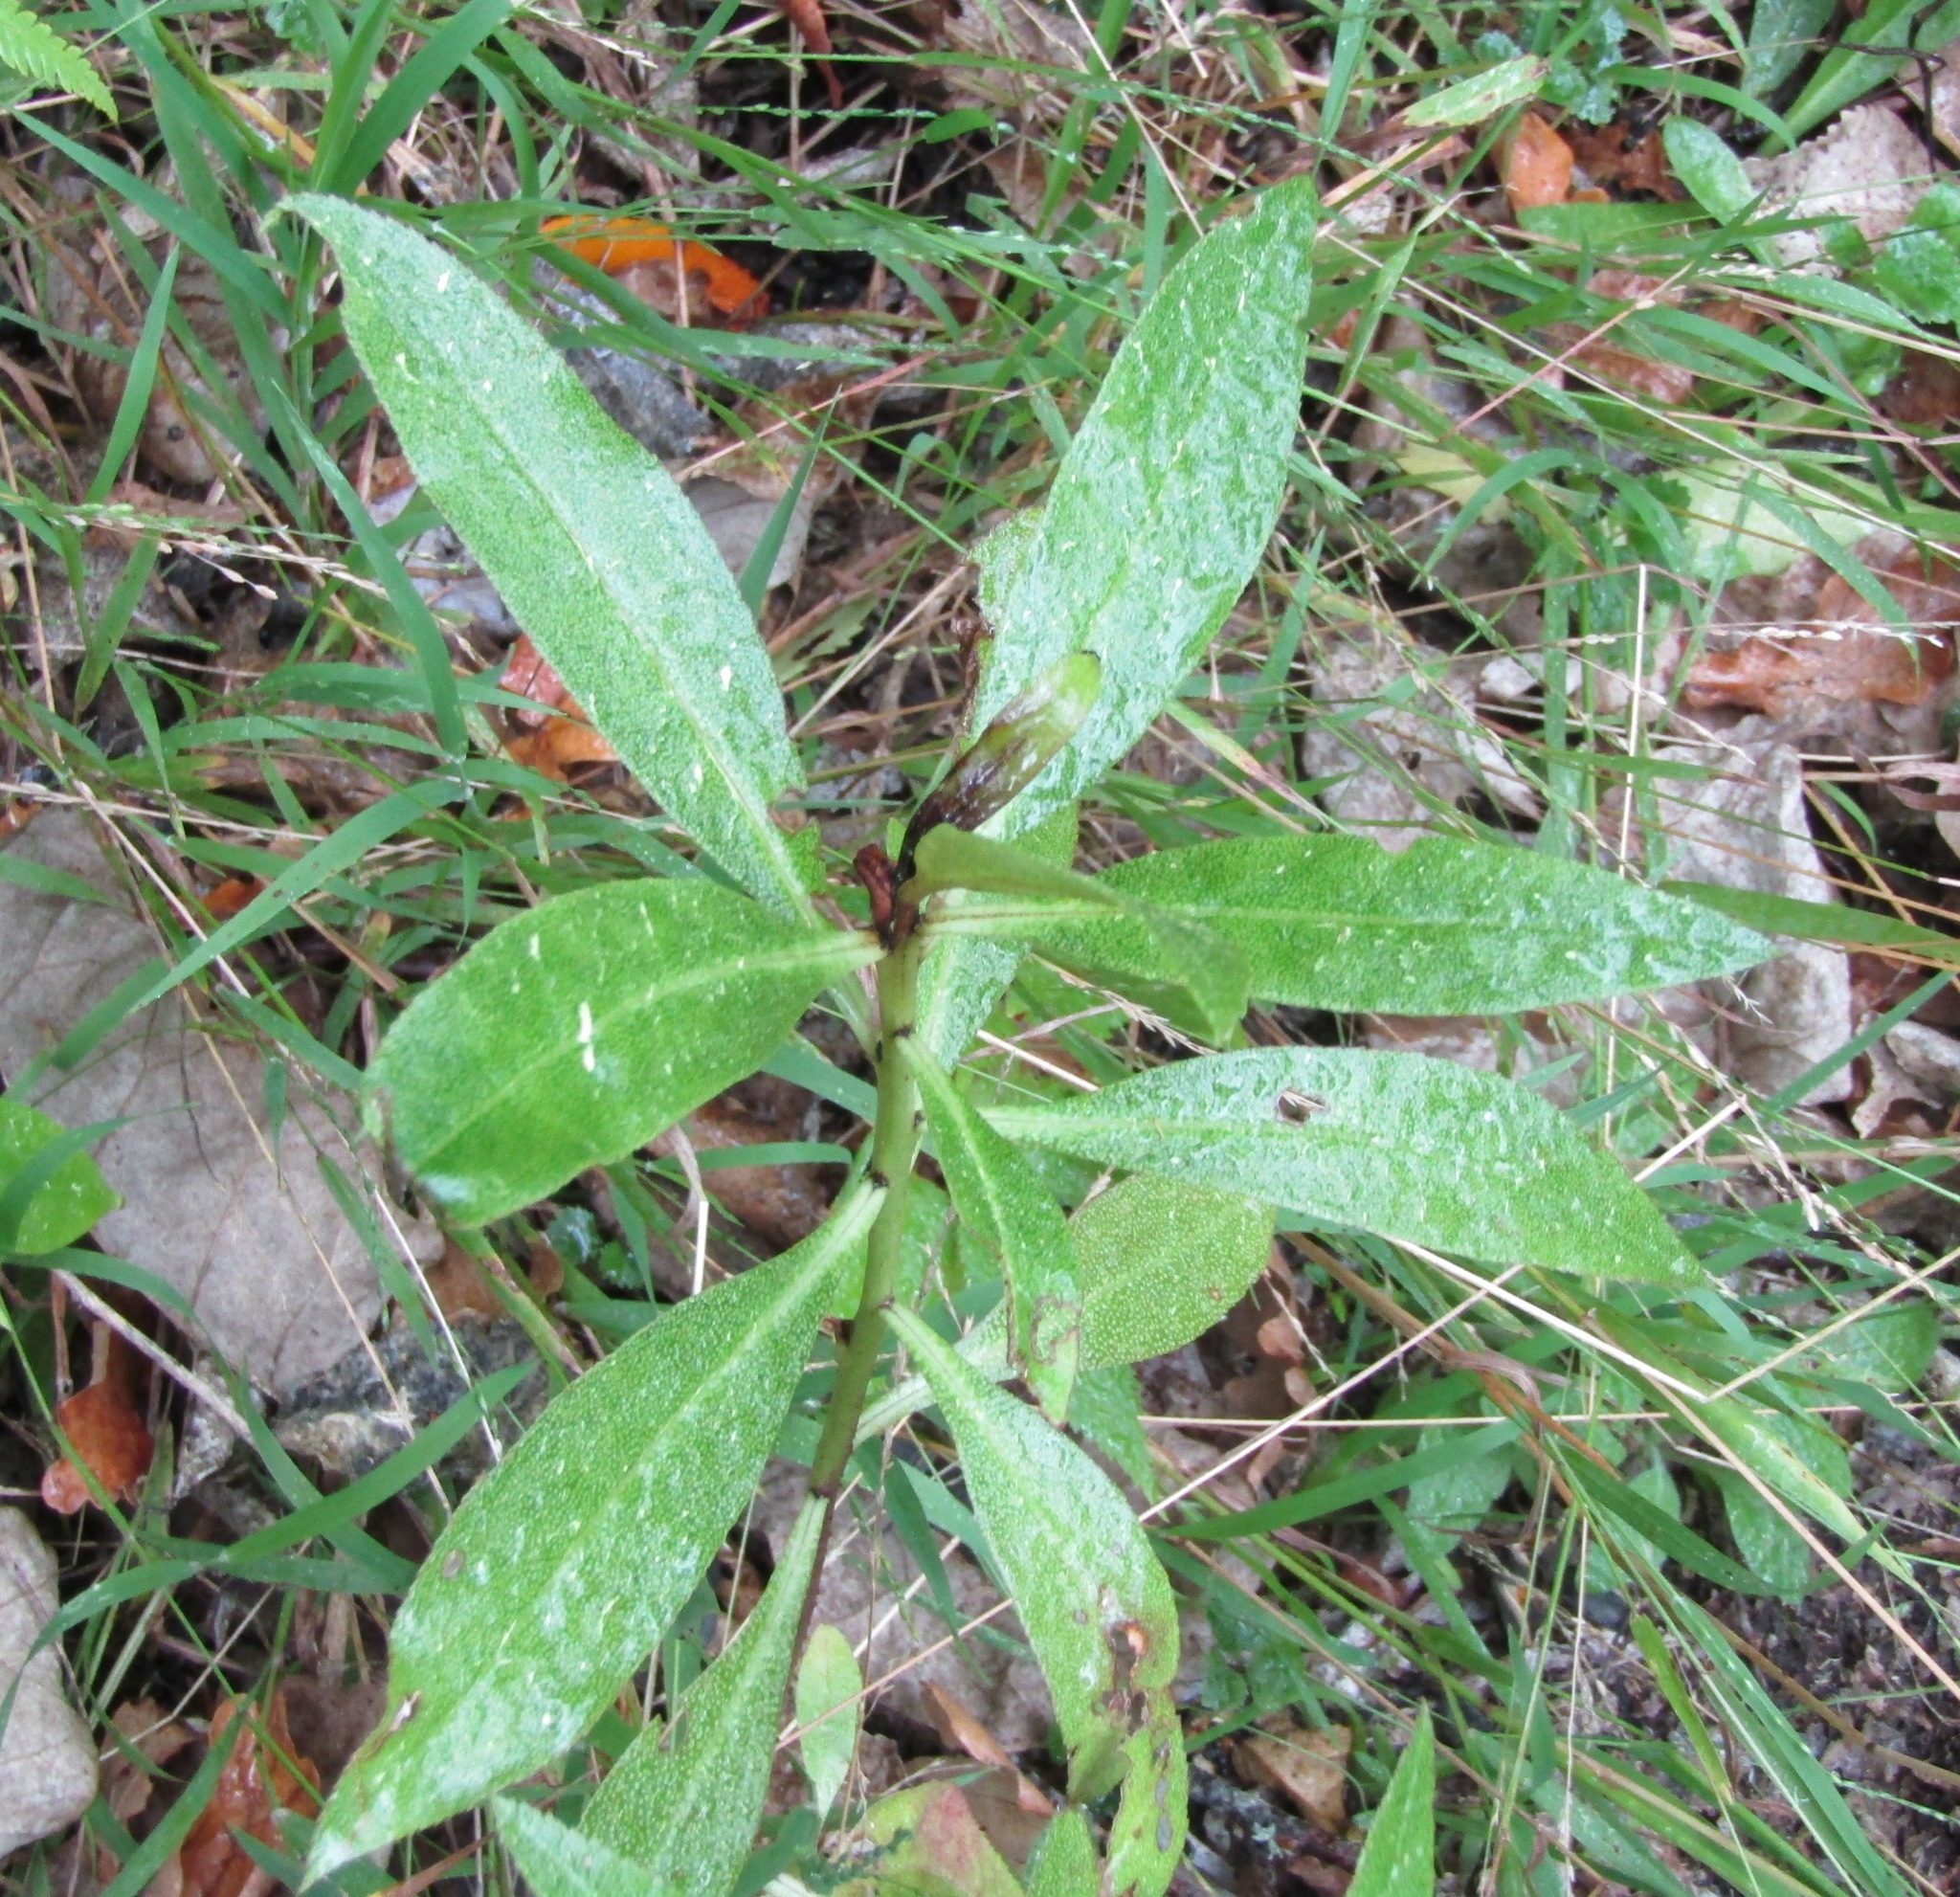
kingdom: Plantae
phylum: Tracheophyta
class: Magnoliopsida
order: Lamiales
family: Scrophulariaceae
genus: Myoporum
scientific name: Myoporum laetum
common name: Ngaio tree
